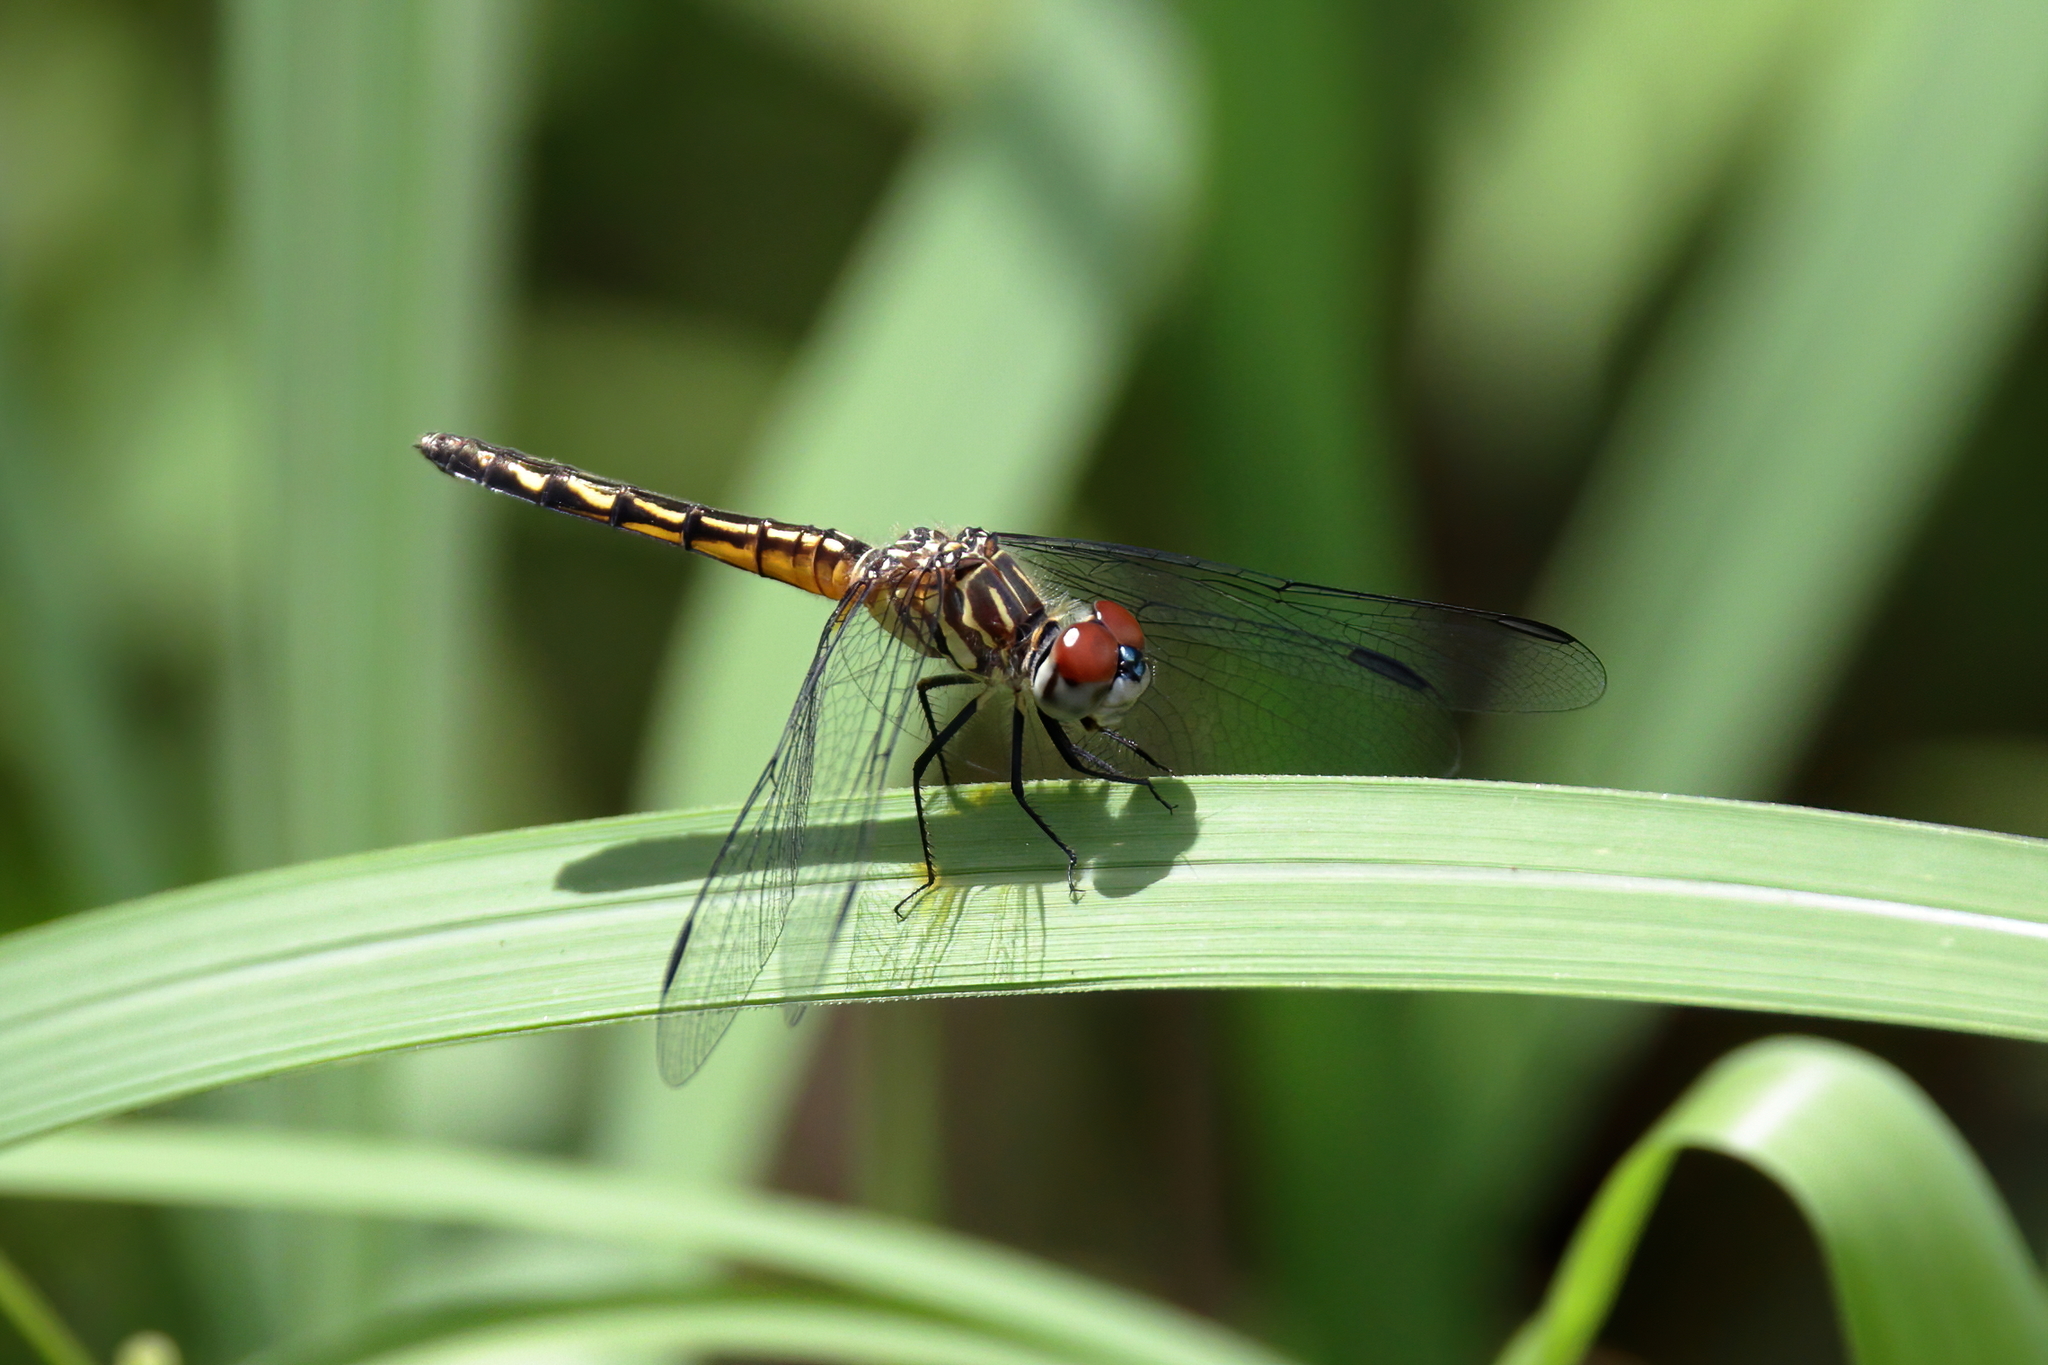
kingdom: Animalia
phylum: Arthropoda
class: Insecta
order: Odonata
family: Libellulidae
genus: Pachydiplax
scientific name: Pachydiplax longipennis
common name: Blue dasher
